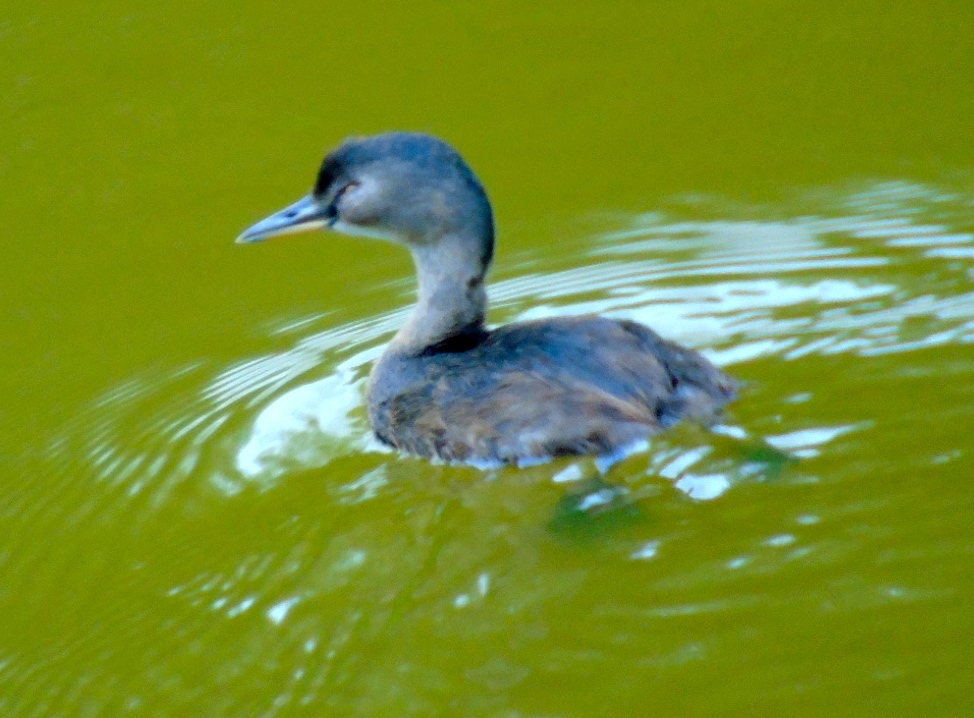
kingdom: Animalia
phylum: Chordata
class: Aves
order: Podicipediformes
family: Podicipedidae
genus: Tachybaptus
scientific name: Tachybaptus dominicus
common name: Least grebe
